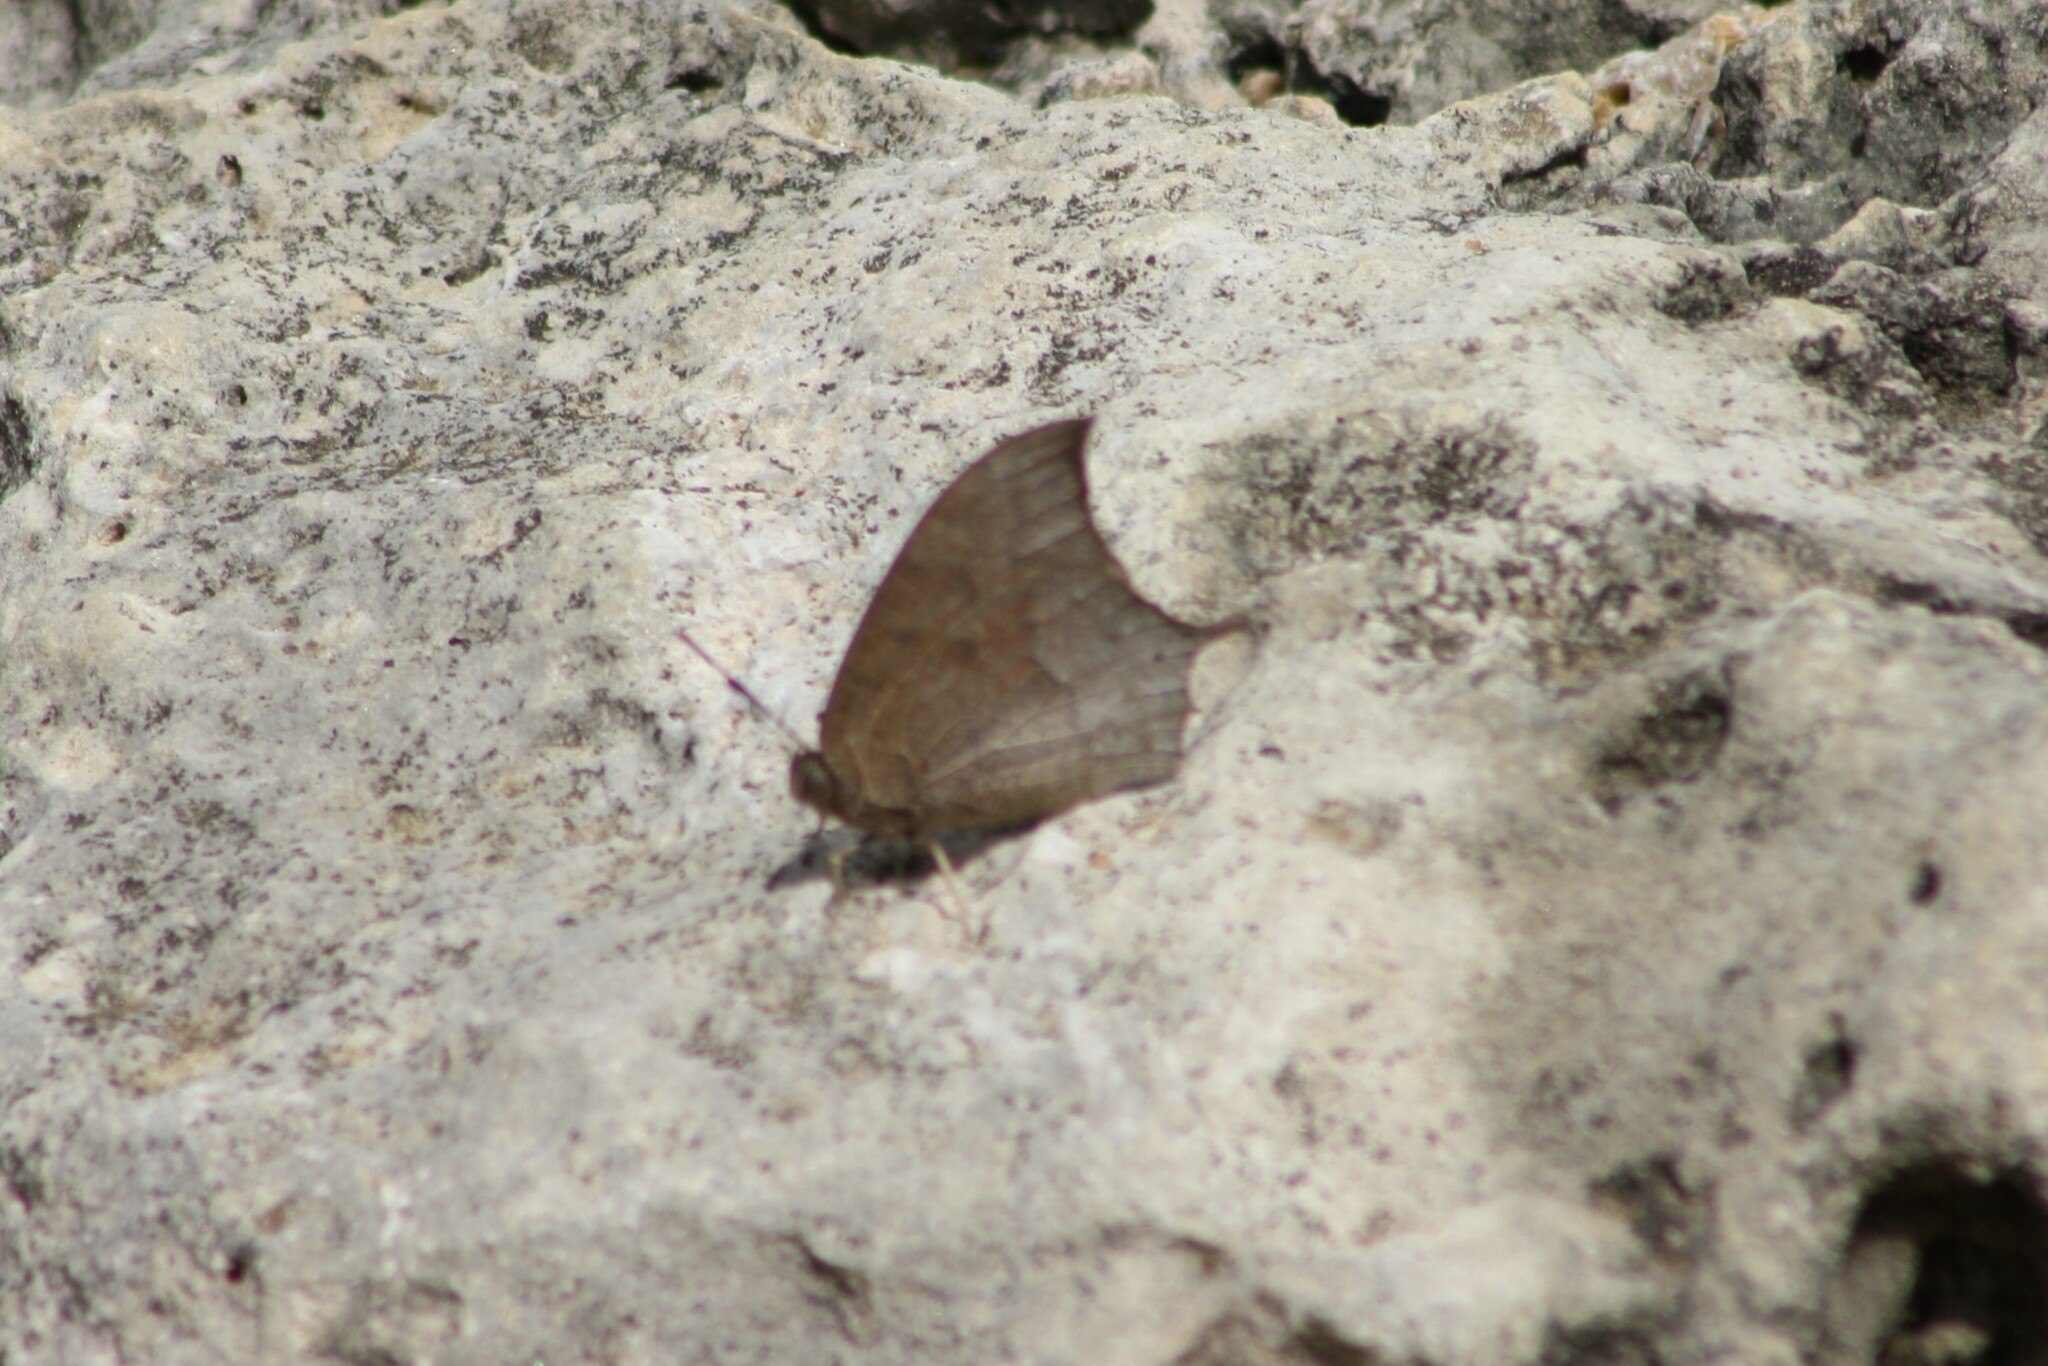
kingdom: Animalia
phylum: Arthropoda
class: Insecta
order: Lepidoptera
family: Nymphalidae
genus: Anaea
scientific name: Anaea andria
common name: Goatweed leafwing
